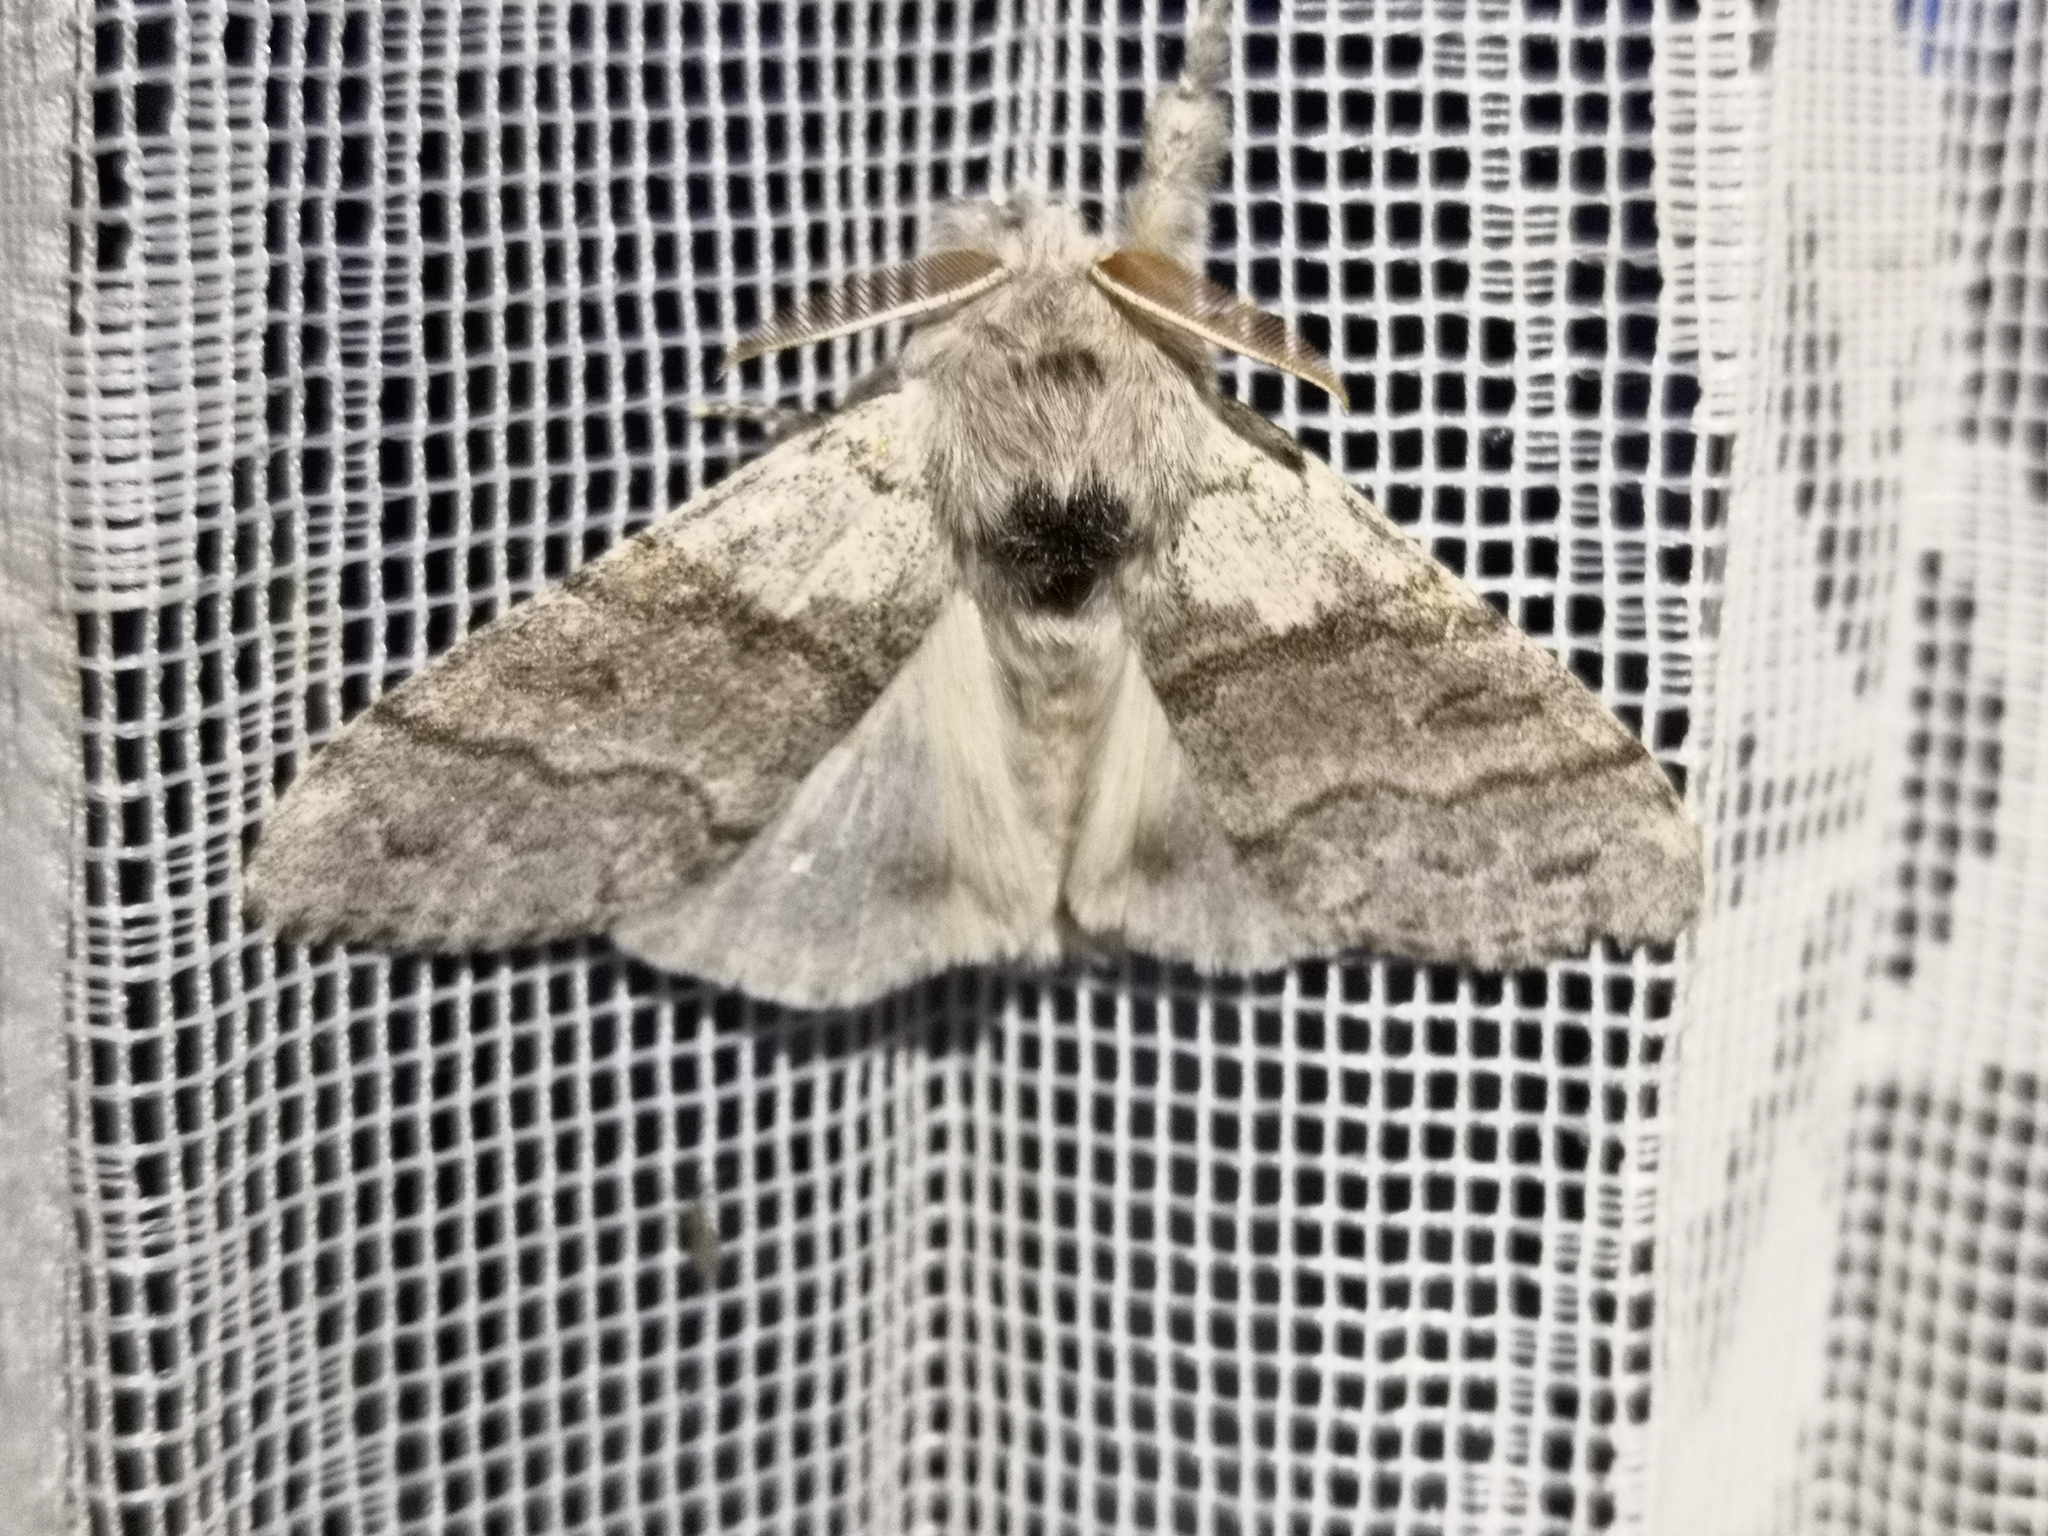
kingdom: Animalia
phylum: Arthropoda
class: Insecta
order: Lepidoptera
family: Erebidae
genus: Calliteara
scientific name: Calliteara pudibunda
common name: Pale tussock
